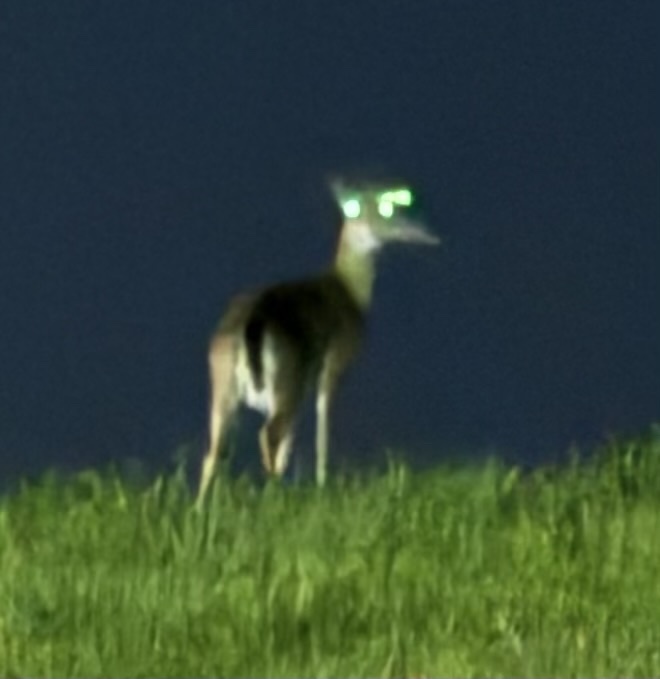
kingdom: Animalia
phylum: Chordata
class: Mammalia
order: Artiodactyla
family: Cervidae
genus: Odocoileus
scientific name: Odocoileus virginianus
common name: White-tailed deer
